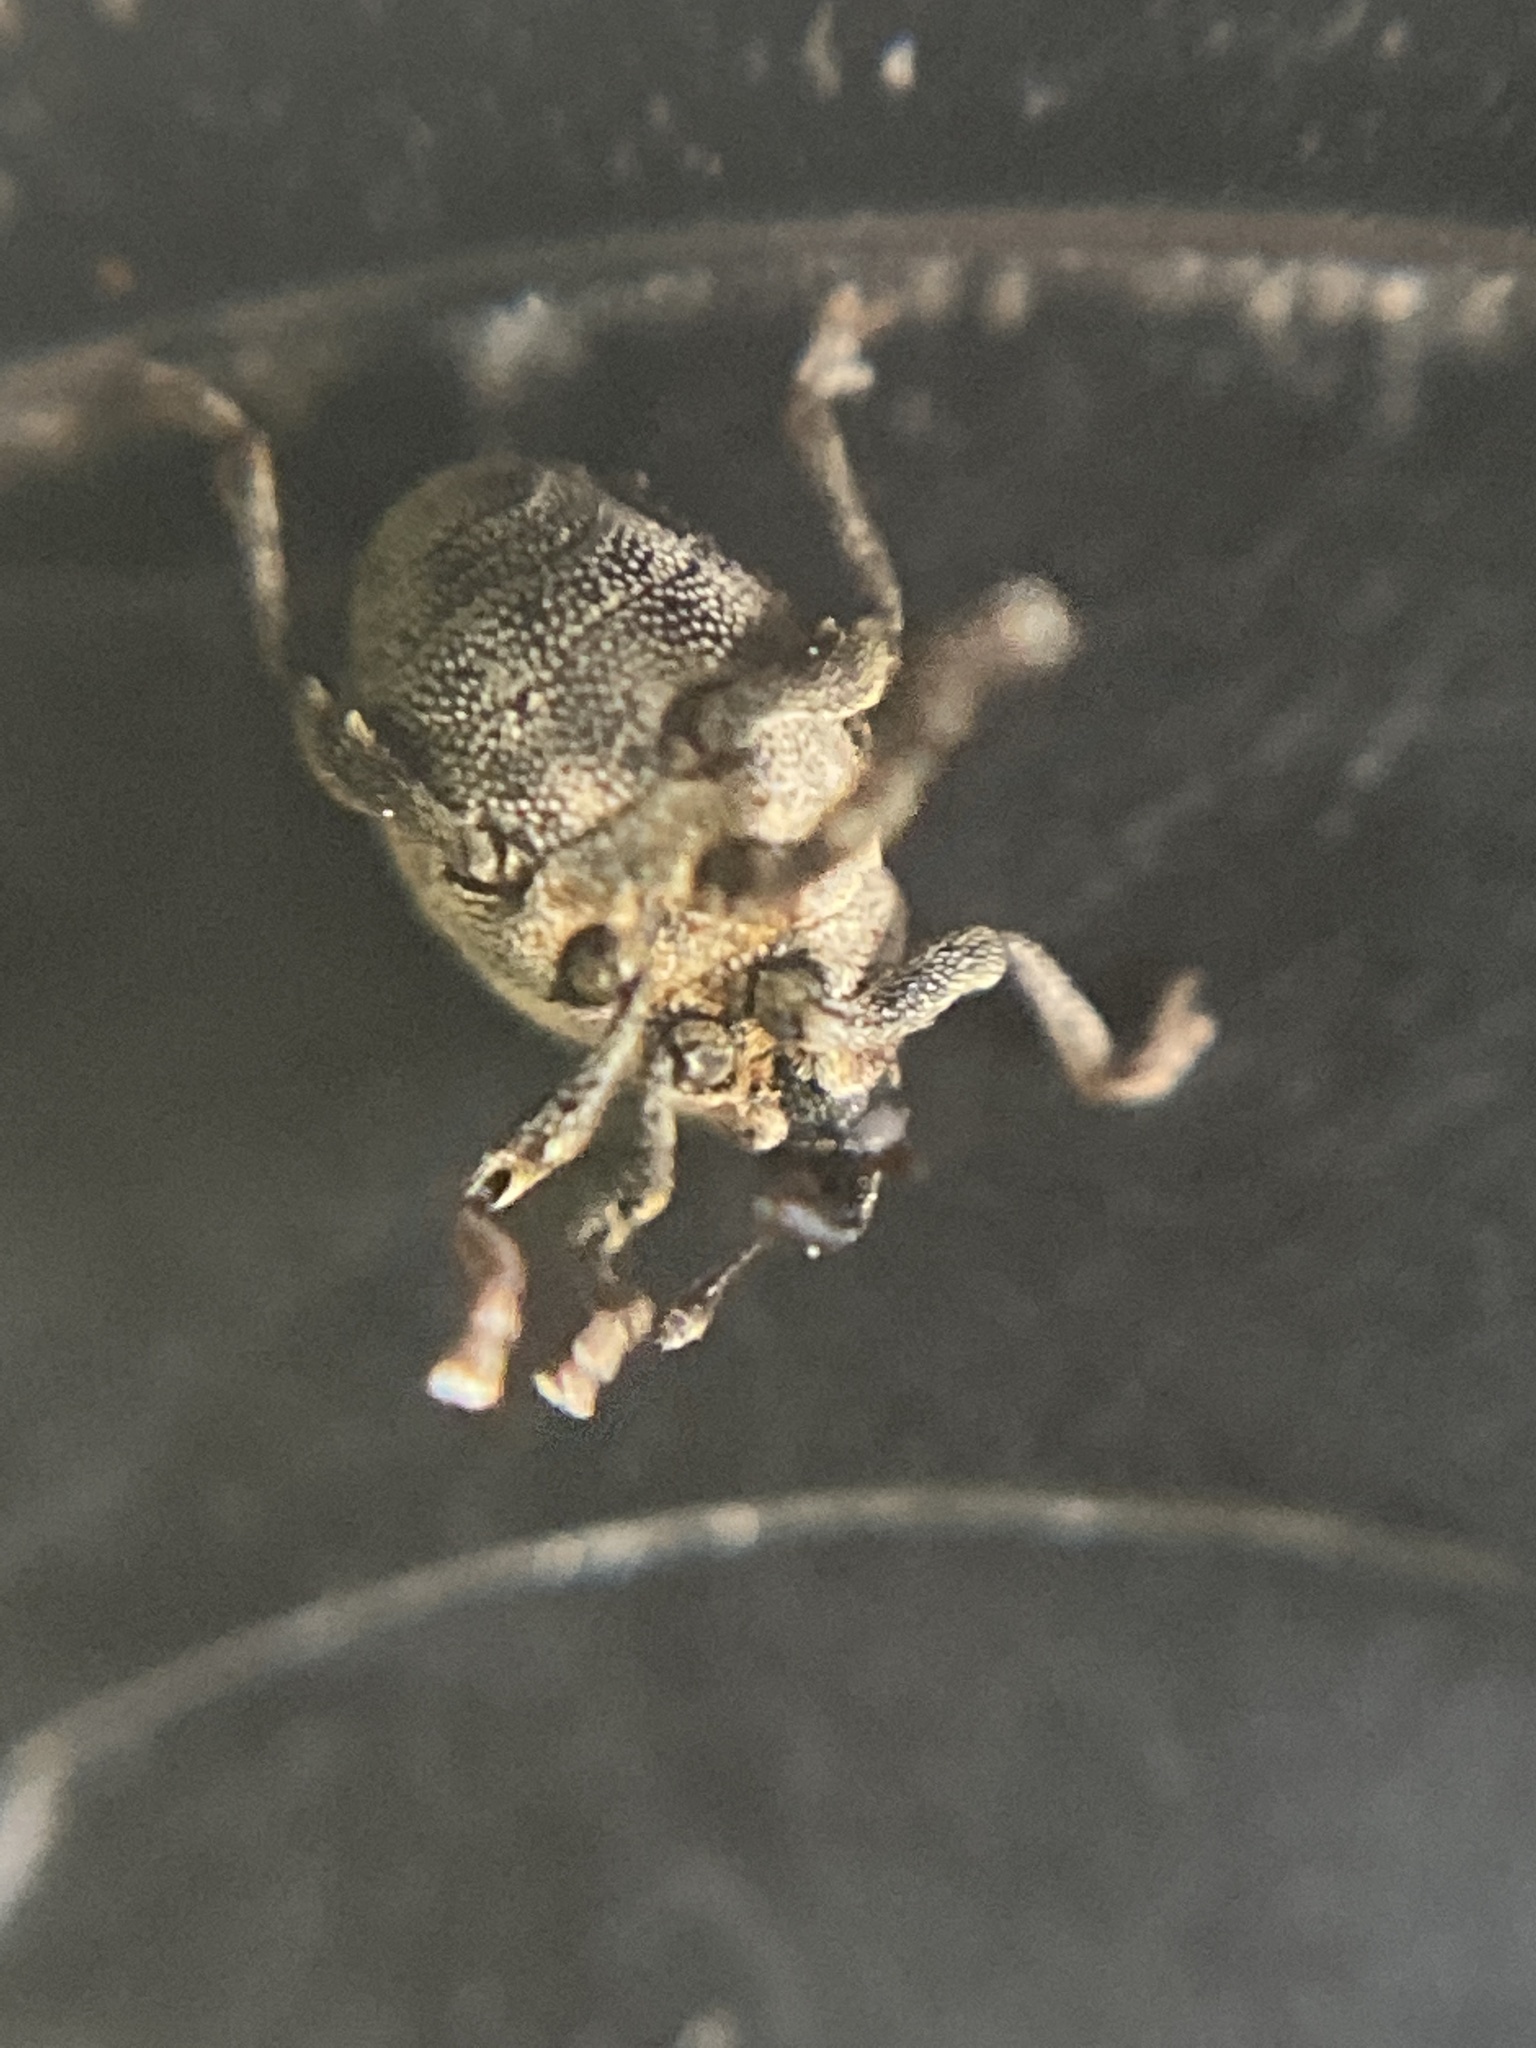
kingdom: Animalia
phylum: Arthropoda
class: Insecta
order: Coleoptera
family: Curculionidae
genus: Nedyus
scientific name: Nedyus quadrimaculatus
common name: Small nettle weevil
